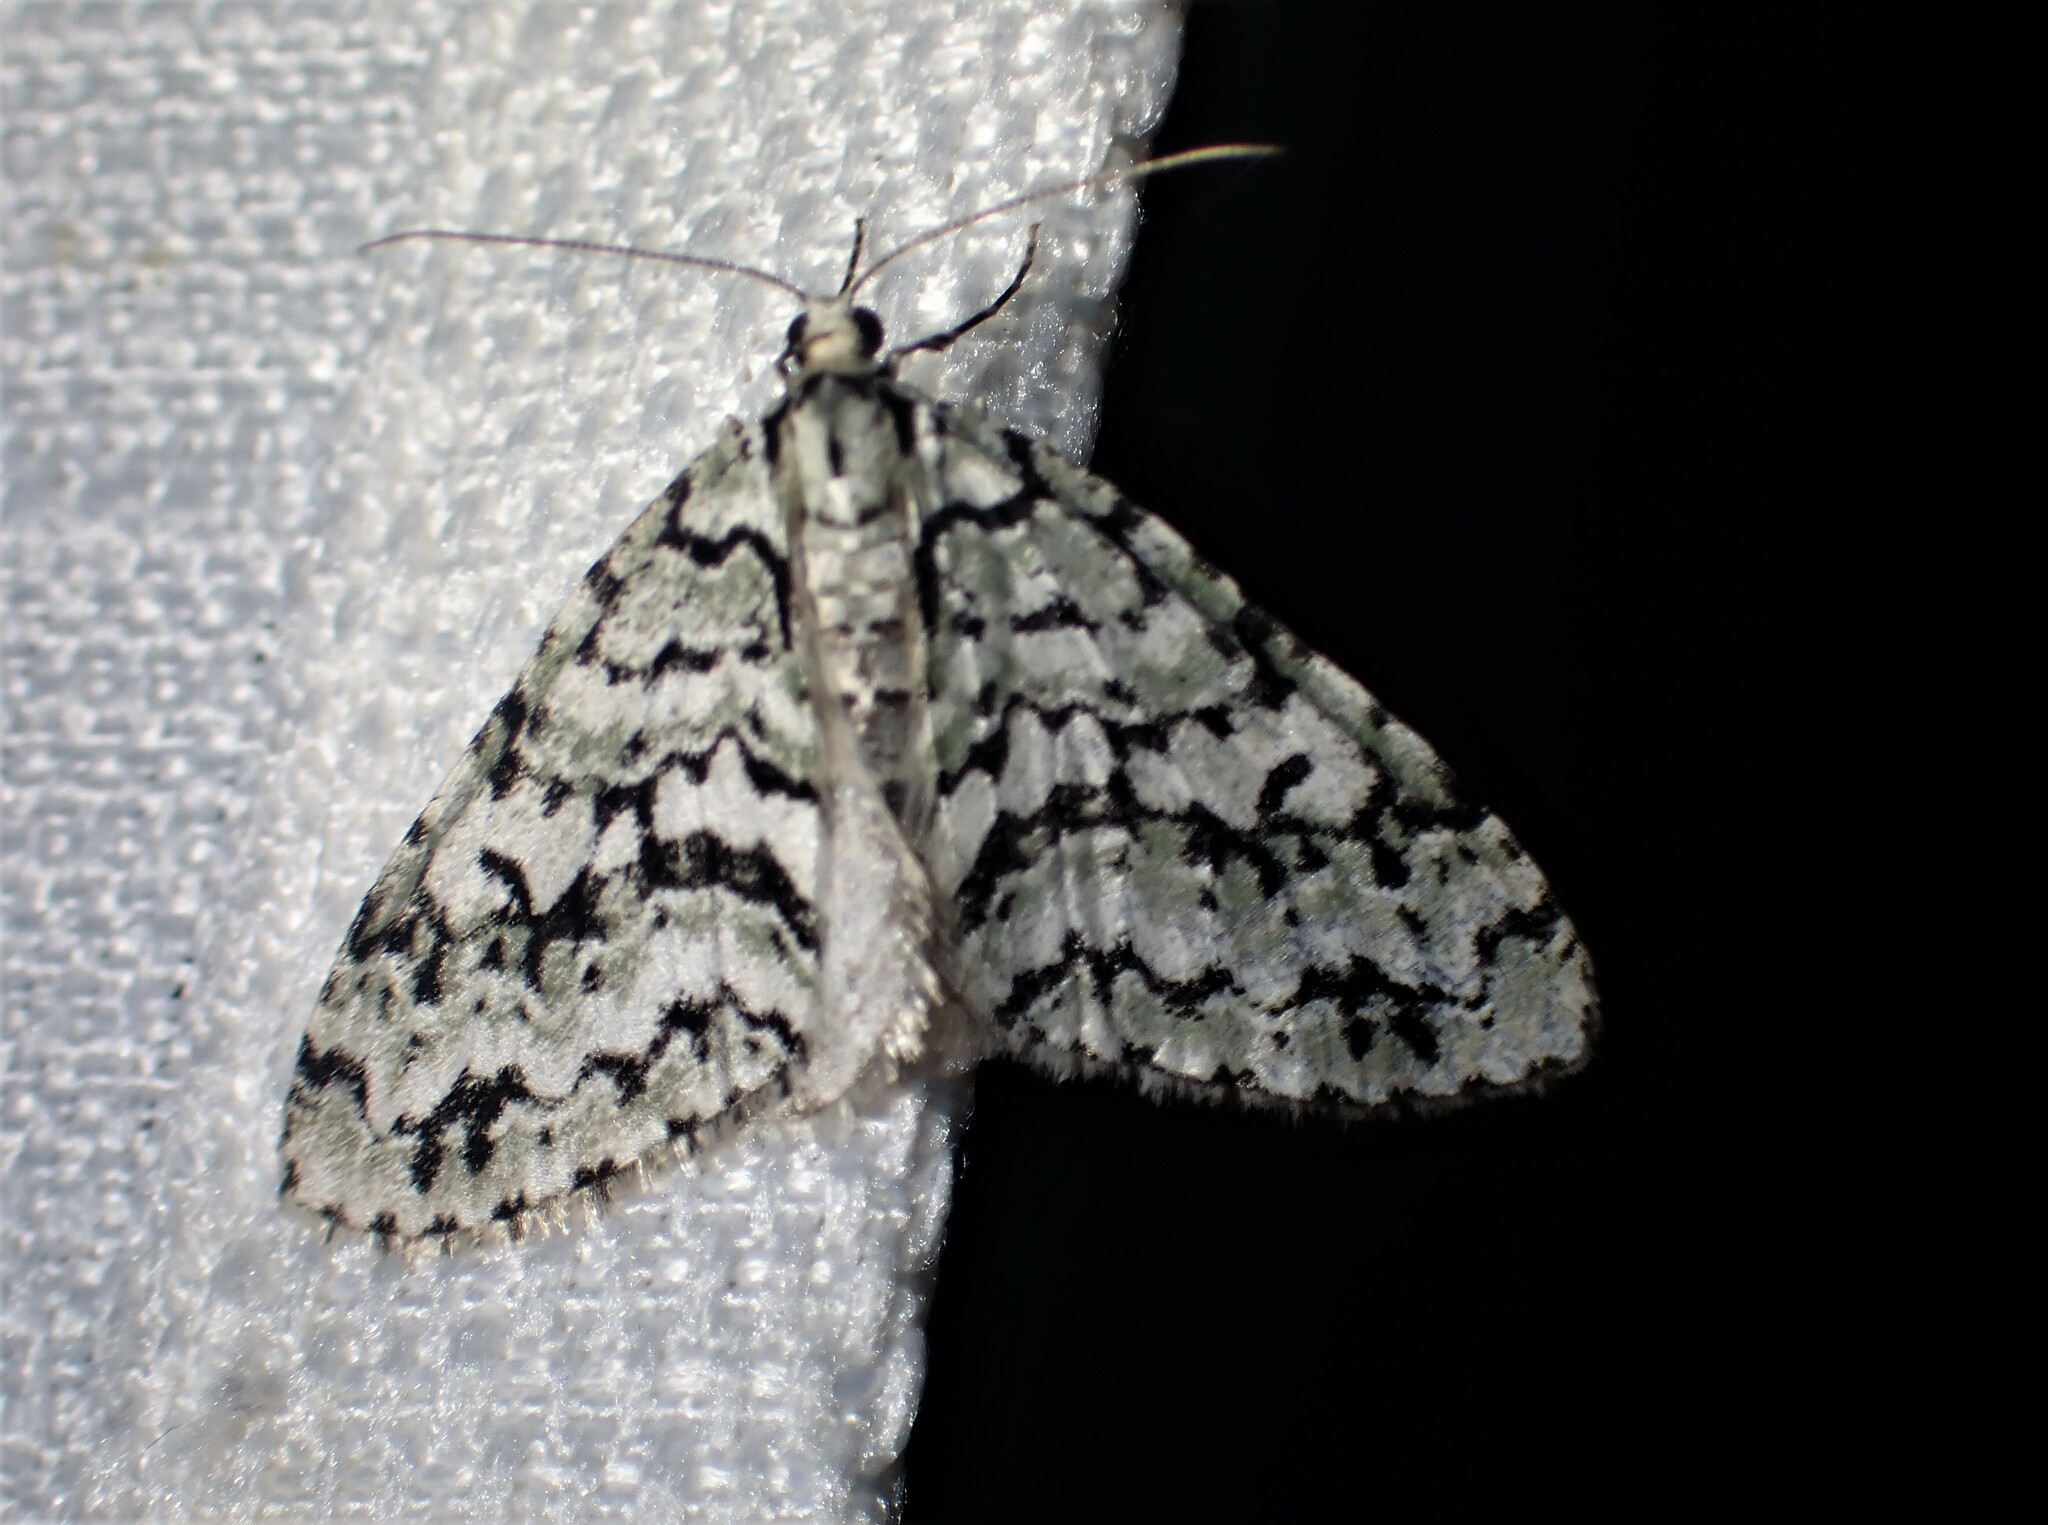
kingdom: Animalia
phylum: Arthropoda
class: Insecta
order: Lepidoptera
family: Geometridae
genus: Cladara
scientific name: Cladara atroliturata
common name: Scribbler
